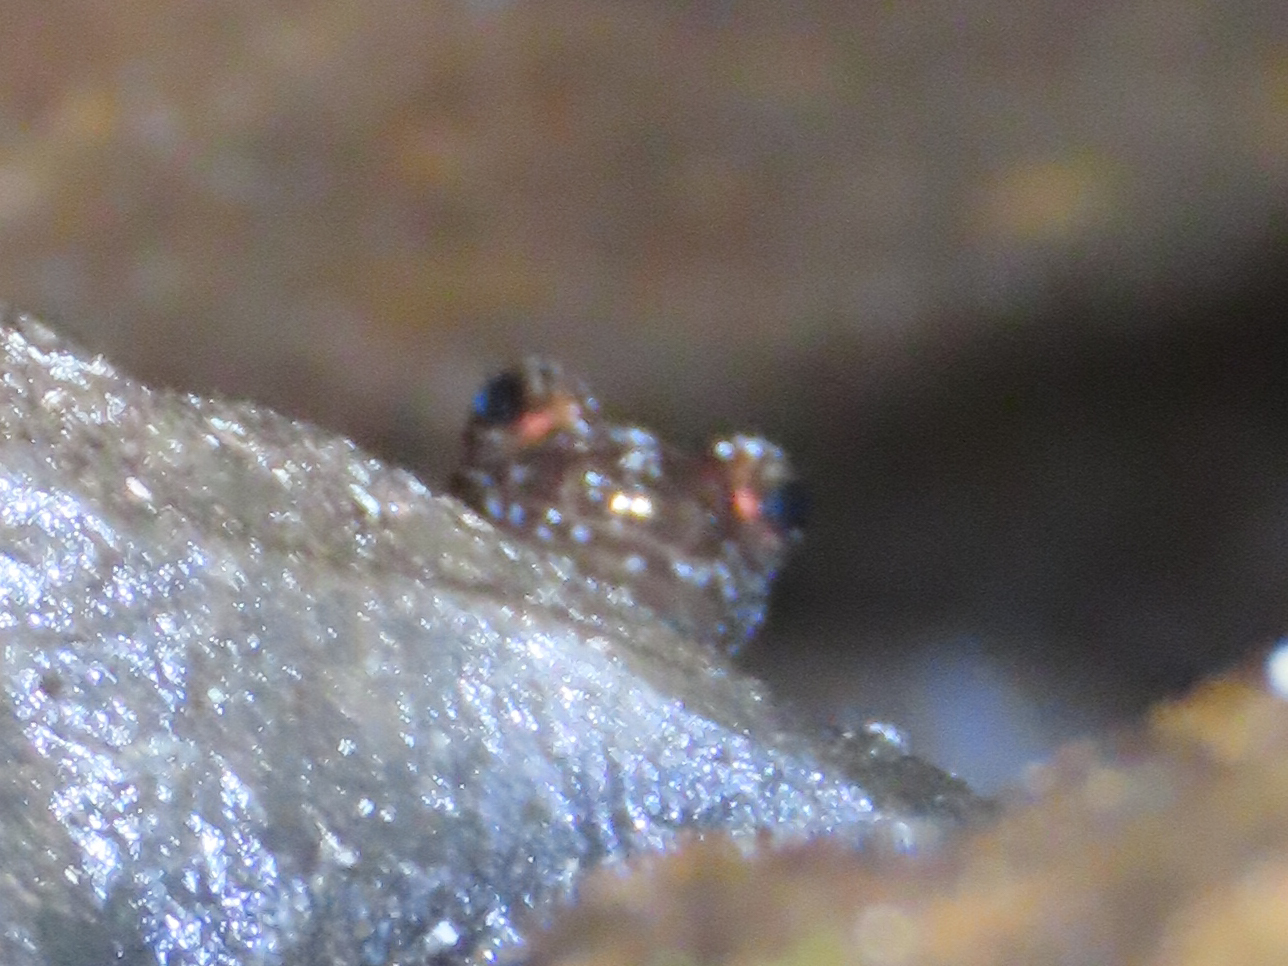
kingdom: Animalia
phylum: Chordata
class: Amphibia
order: Caudata
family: Plethodontidae
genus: Desmognathus
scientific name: Desmognathus ochrophaeus
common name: Allegheny mountain dusky salamander
